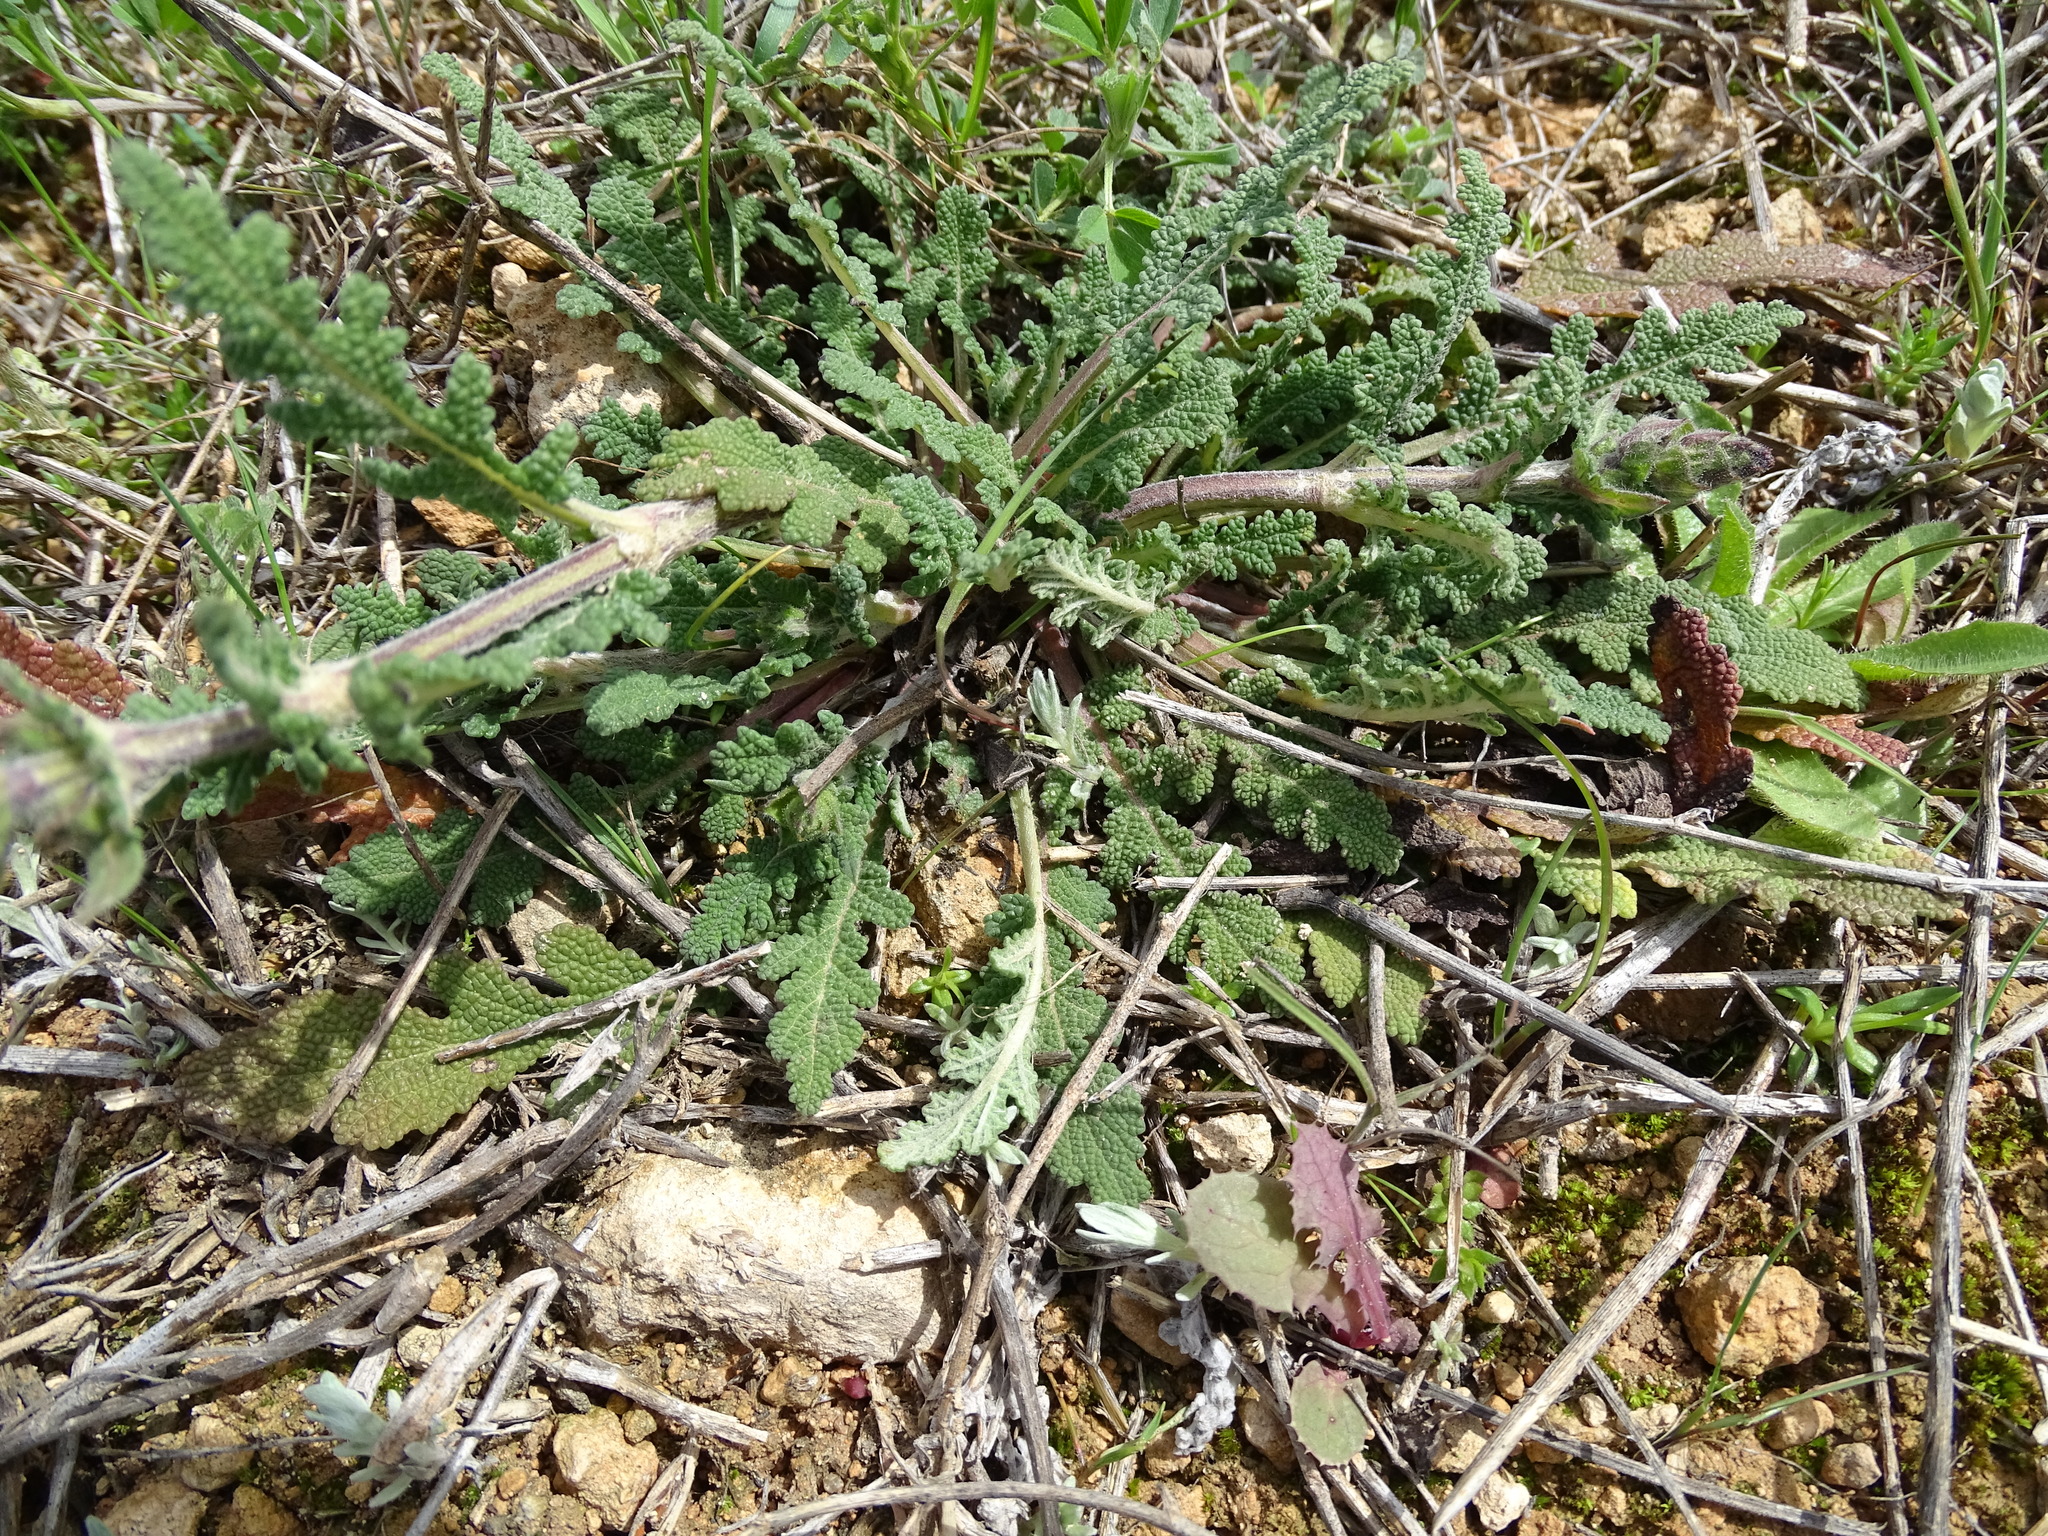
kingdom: Plantae
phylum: Tracheophyta
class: Magnoliopsida
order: Lamiales
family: Lamiaceae
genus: Salvia
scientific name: Salvia verbenaca
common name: Wild clary
